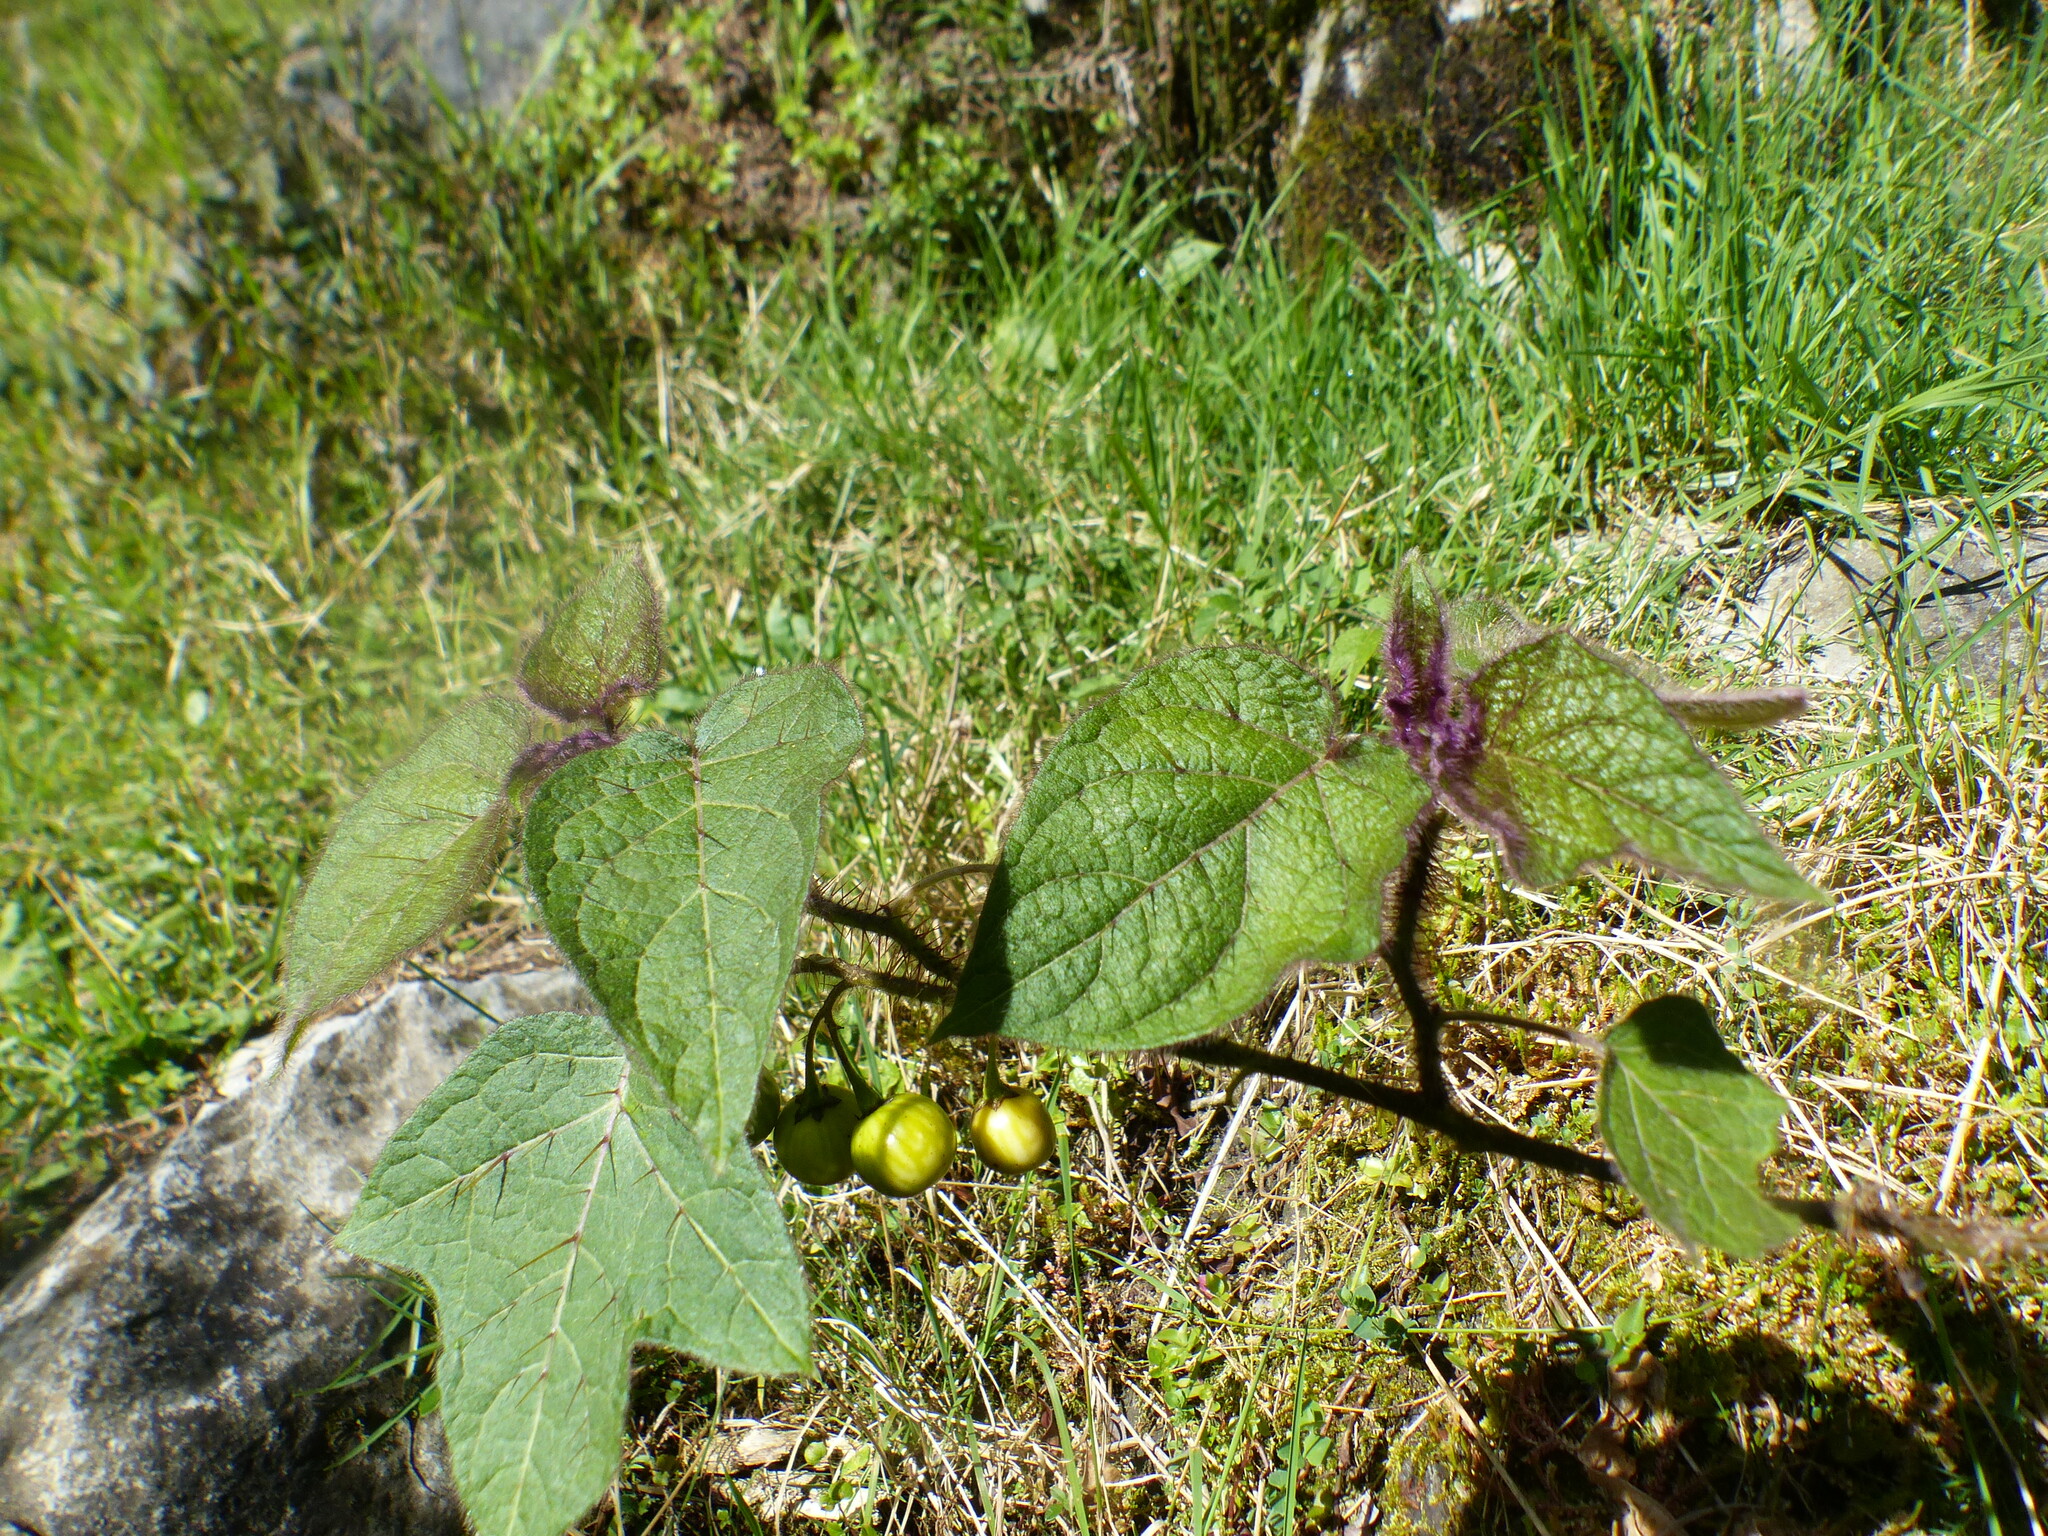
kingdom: Plantae
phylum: Tracheophyta
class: Magnoliopsida
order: Solanales
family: Solanaceae
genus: Solanum
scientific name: Solanum acerifolium
